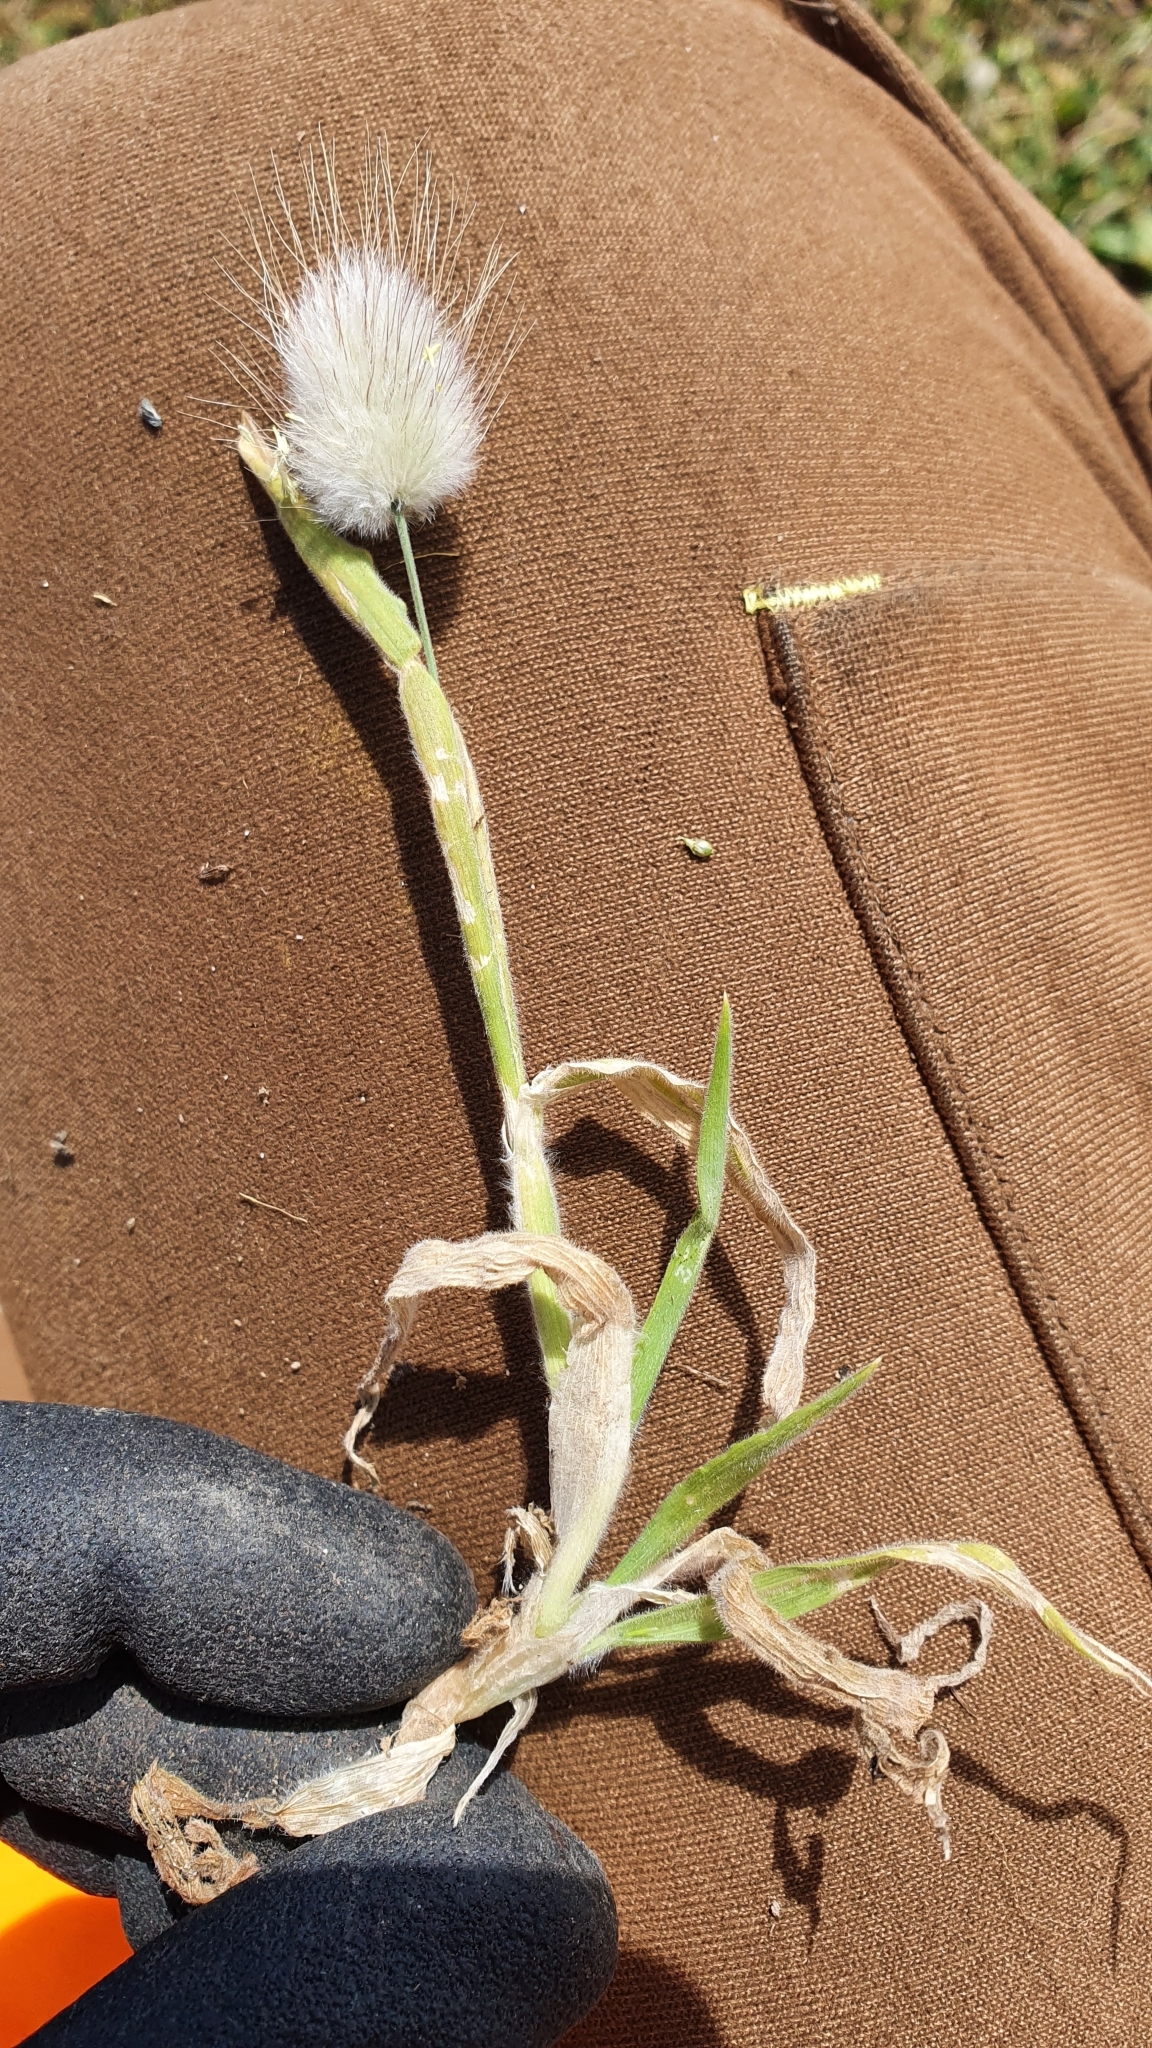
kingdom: Plantae
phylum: Tracheophyta
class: Liliopsida
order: Poales
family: Poaceae
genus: Lagurus
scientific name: Lagurus ovatus
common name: Hare's-tail
